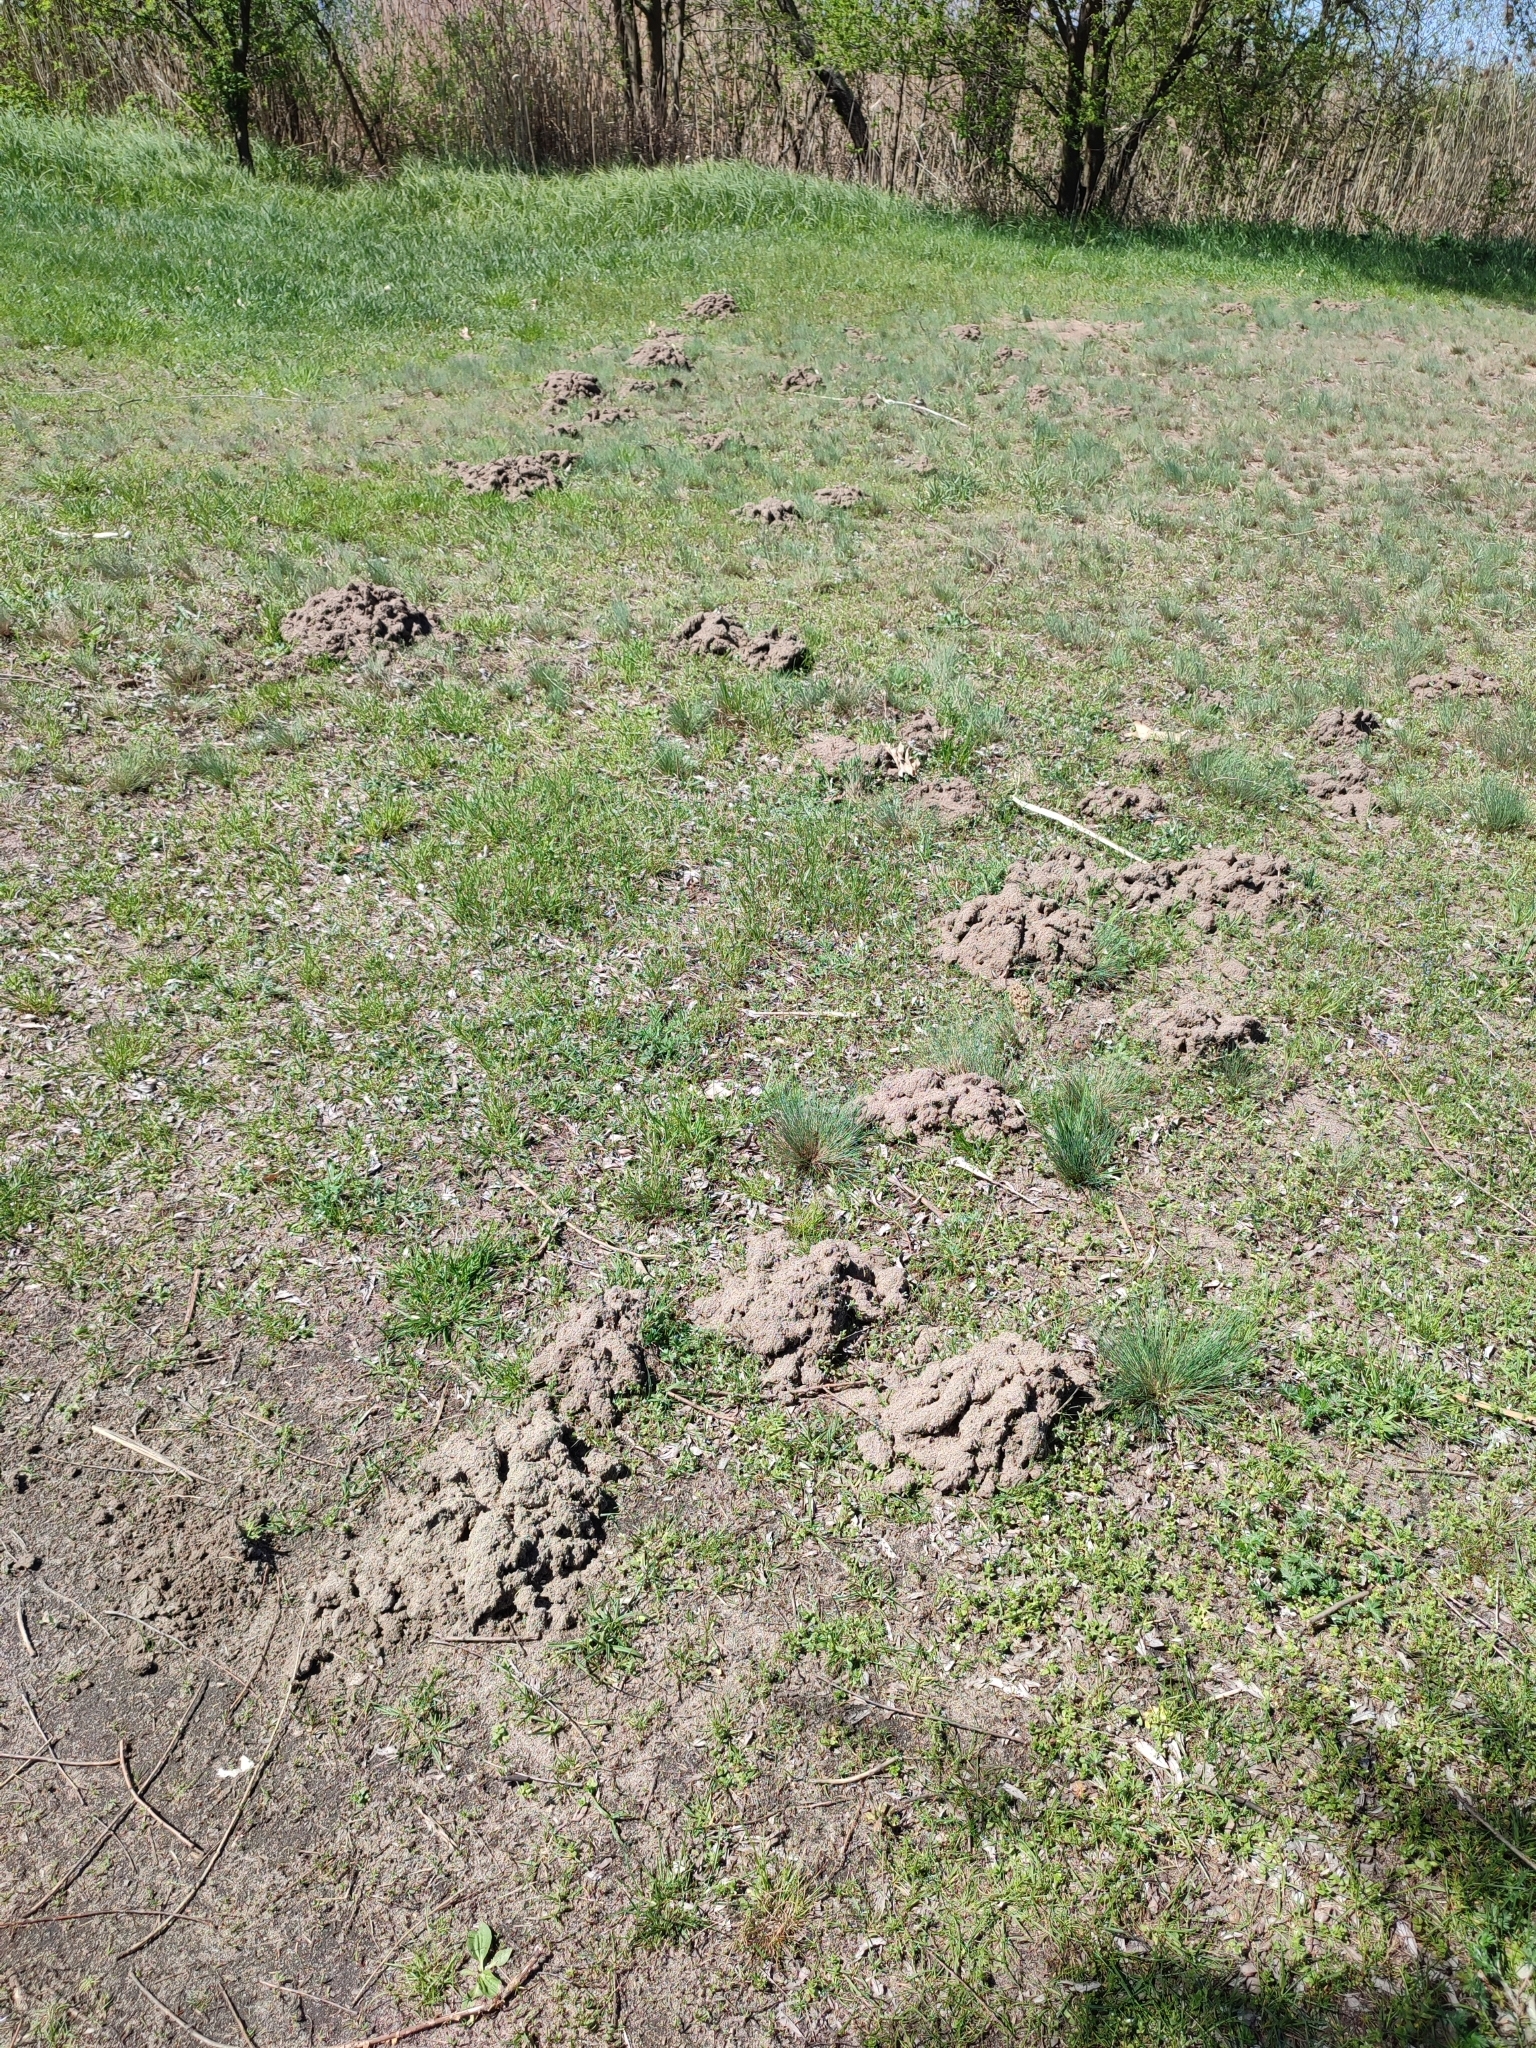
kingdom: Animalia
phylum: Chordata
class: Mammalia
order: Soricomorpha
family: Talpidae
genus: Talpa
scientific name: Talpa europaea
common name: European mole
